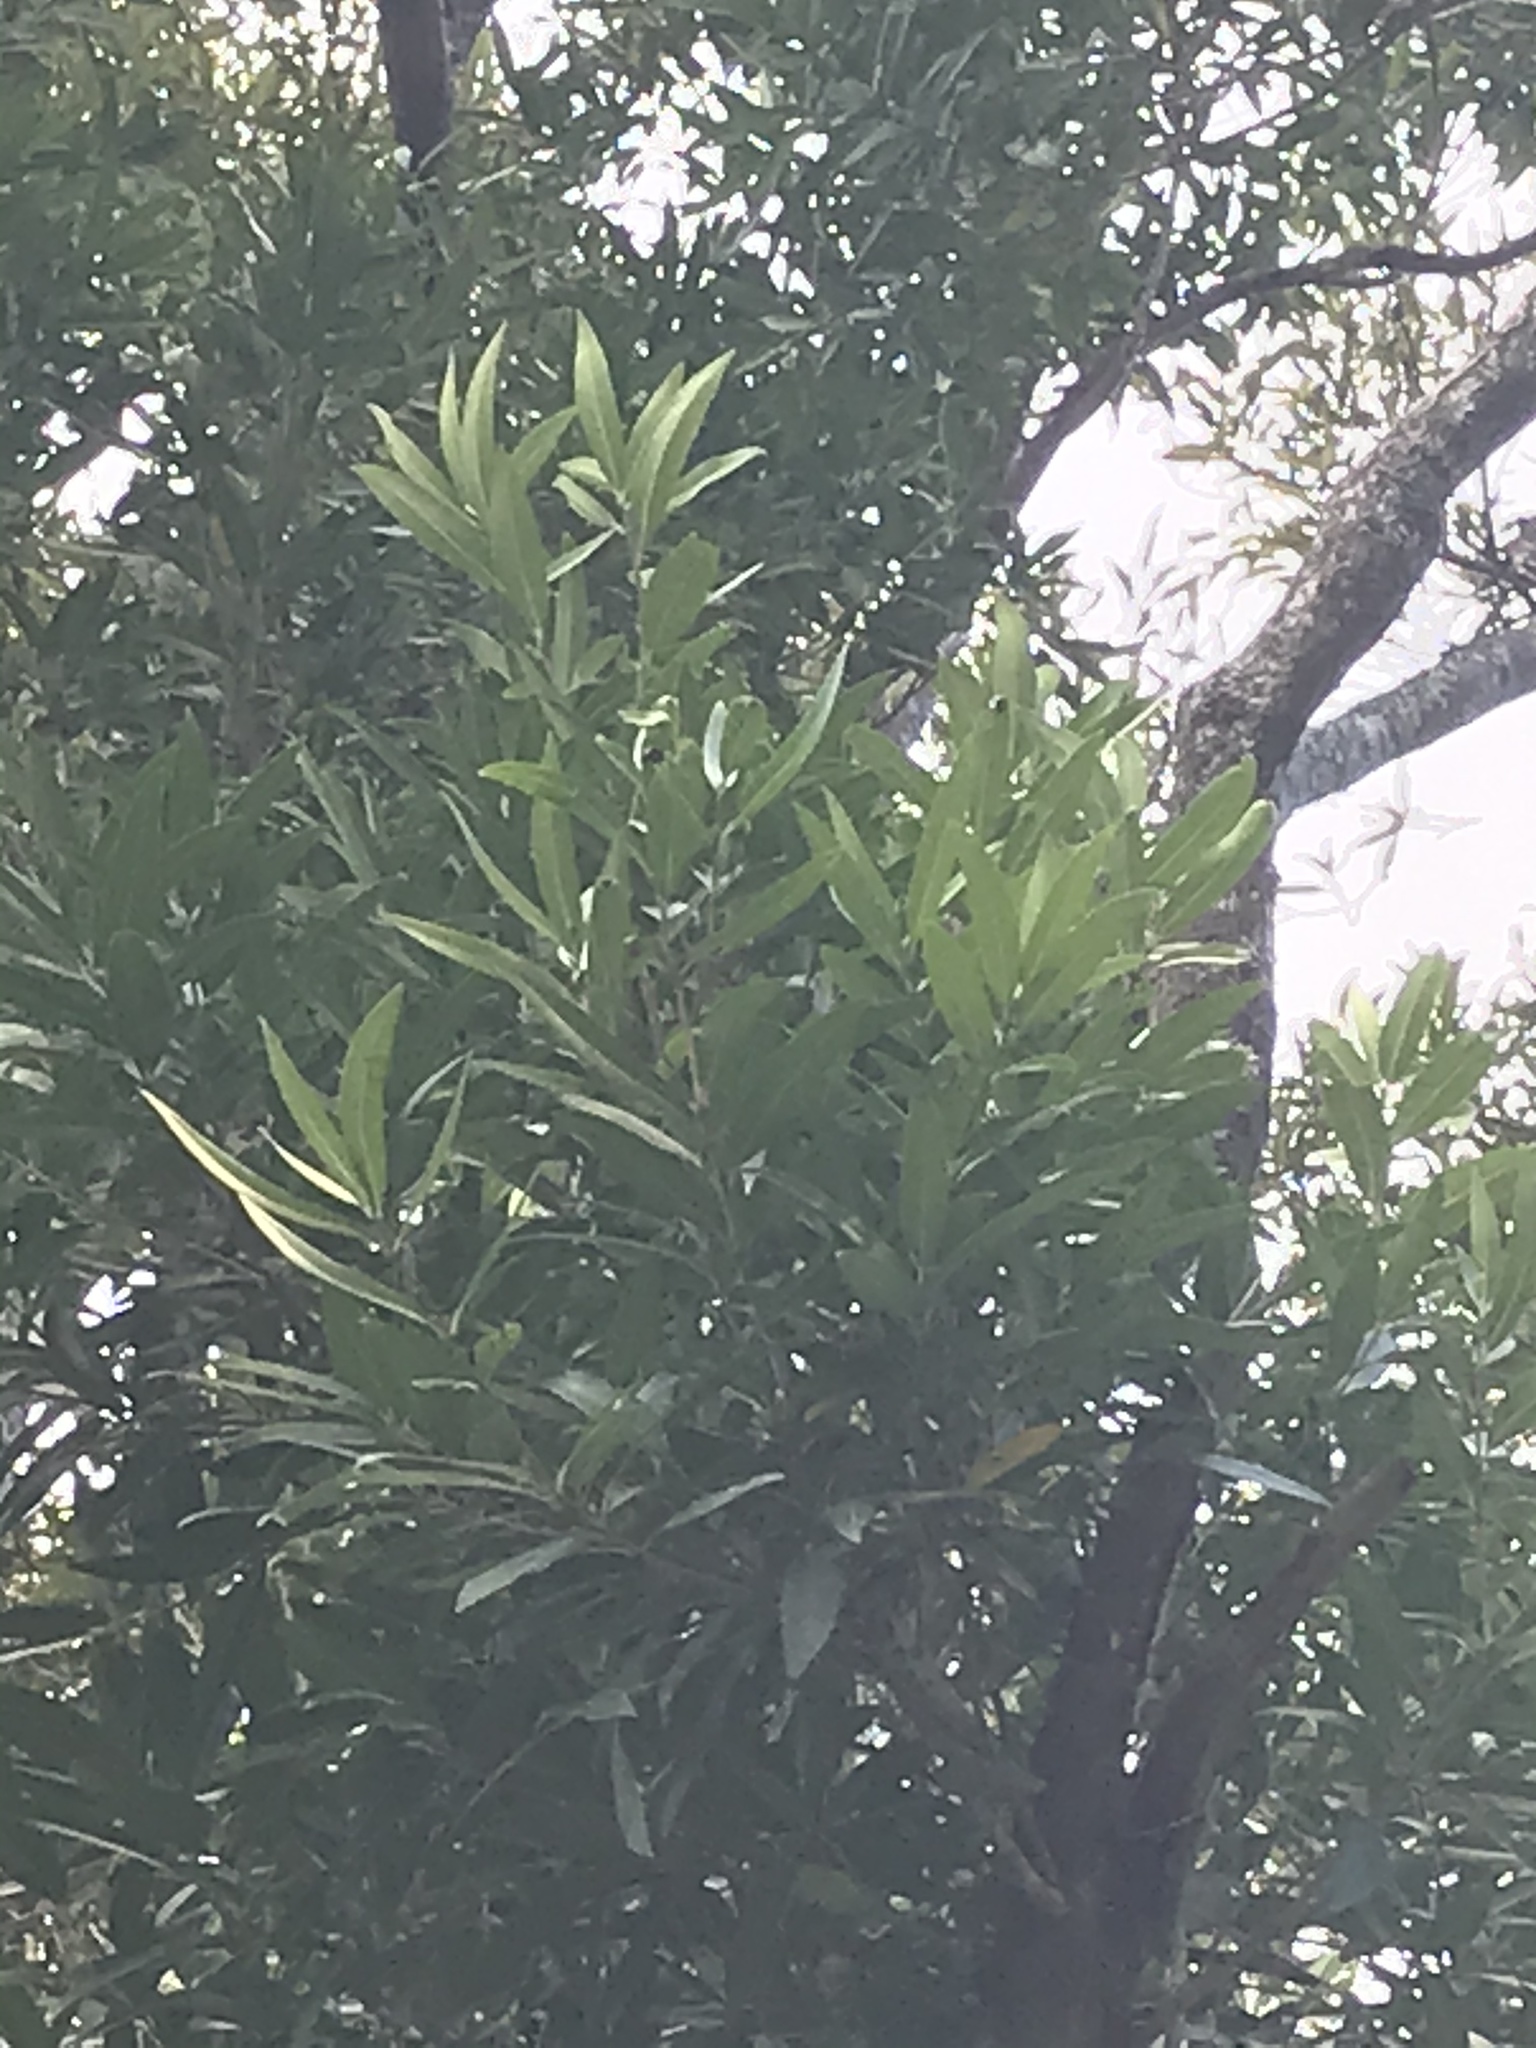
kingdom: Plantae
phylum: Tracheophyta
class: Magnoliopsida
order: Lamiales
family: Oleaceae
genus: Nestegis
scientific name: Nestegis lanceolata
